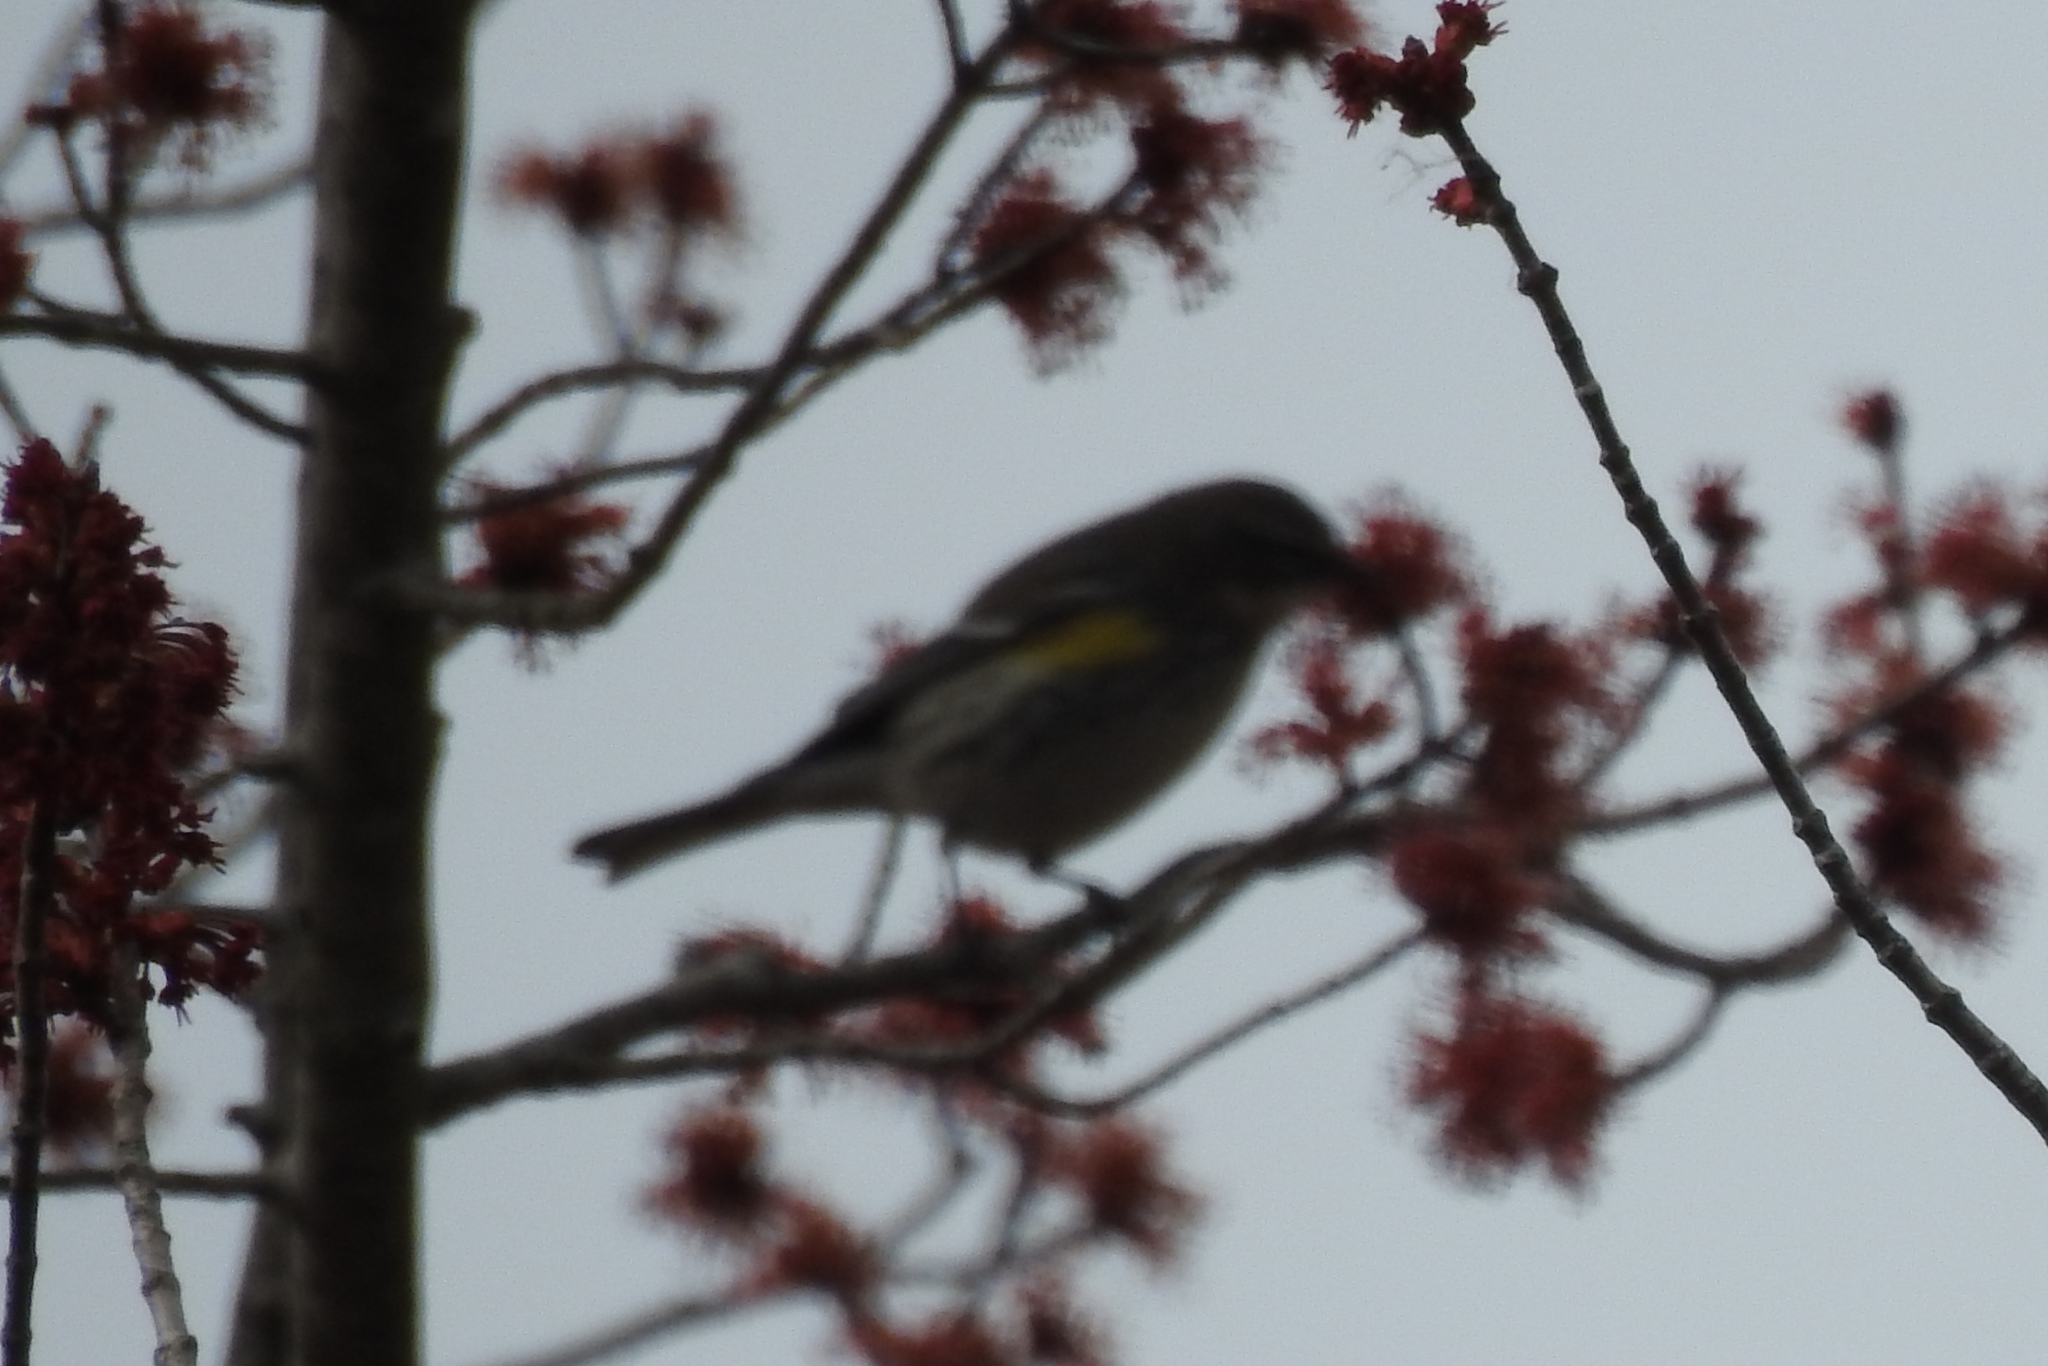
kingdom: Animalia
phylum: Chordata
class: Aves
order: Passeriformes
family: Parulidae
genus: Setophaga
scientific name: Setophaga coronata
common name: Myrtle warbler
